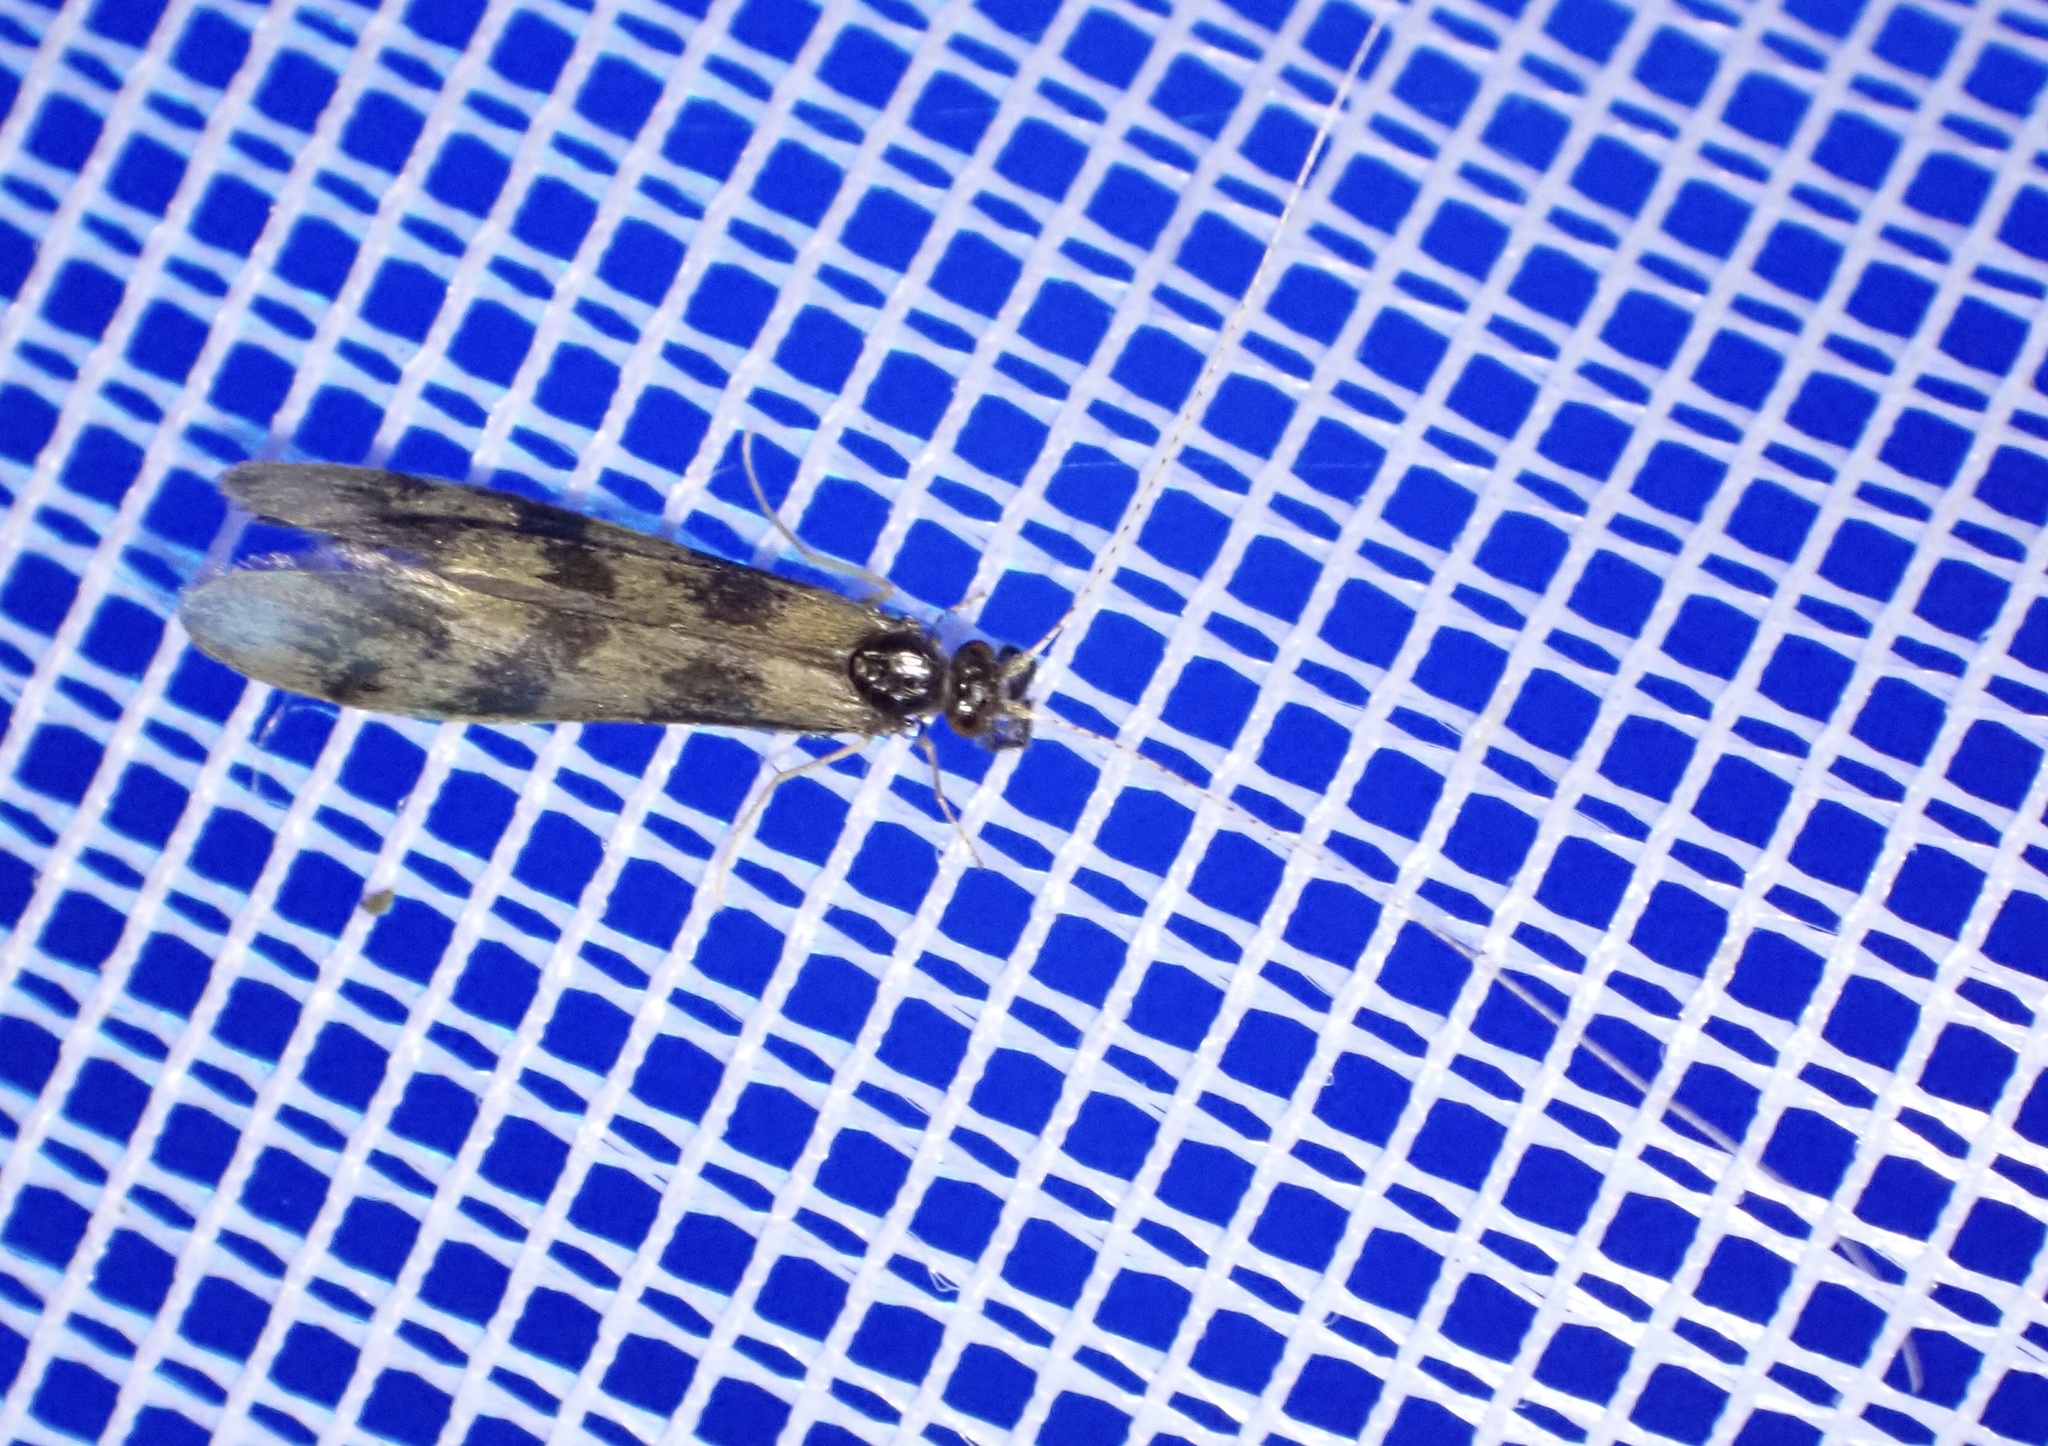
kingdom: Animalia
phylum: Arthropoda
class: Insecta
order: Trichoptera
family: Leptoceridae
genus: Mystacides
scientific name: Mystacides longicornis
